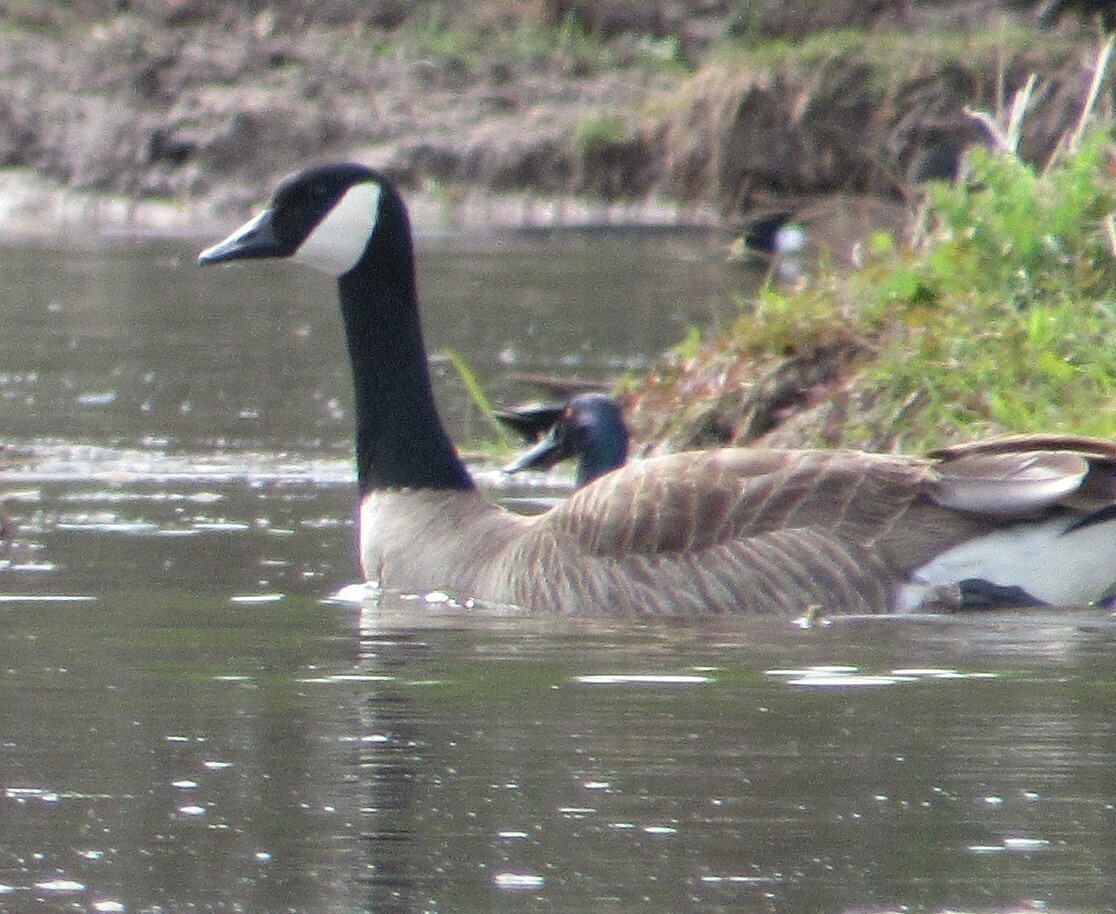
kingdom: Animalia
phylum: Chordata
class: Aves
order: Anseriformes
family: Anatidae
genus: Branta
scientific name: Branta canadensis
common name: Canada goose
